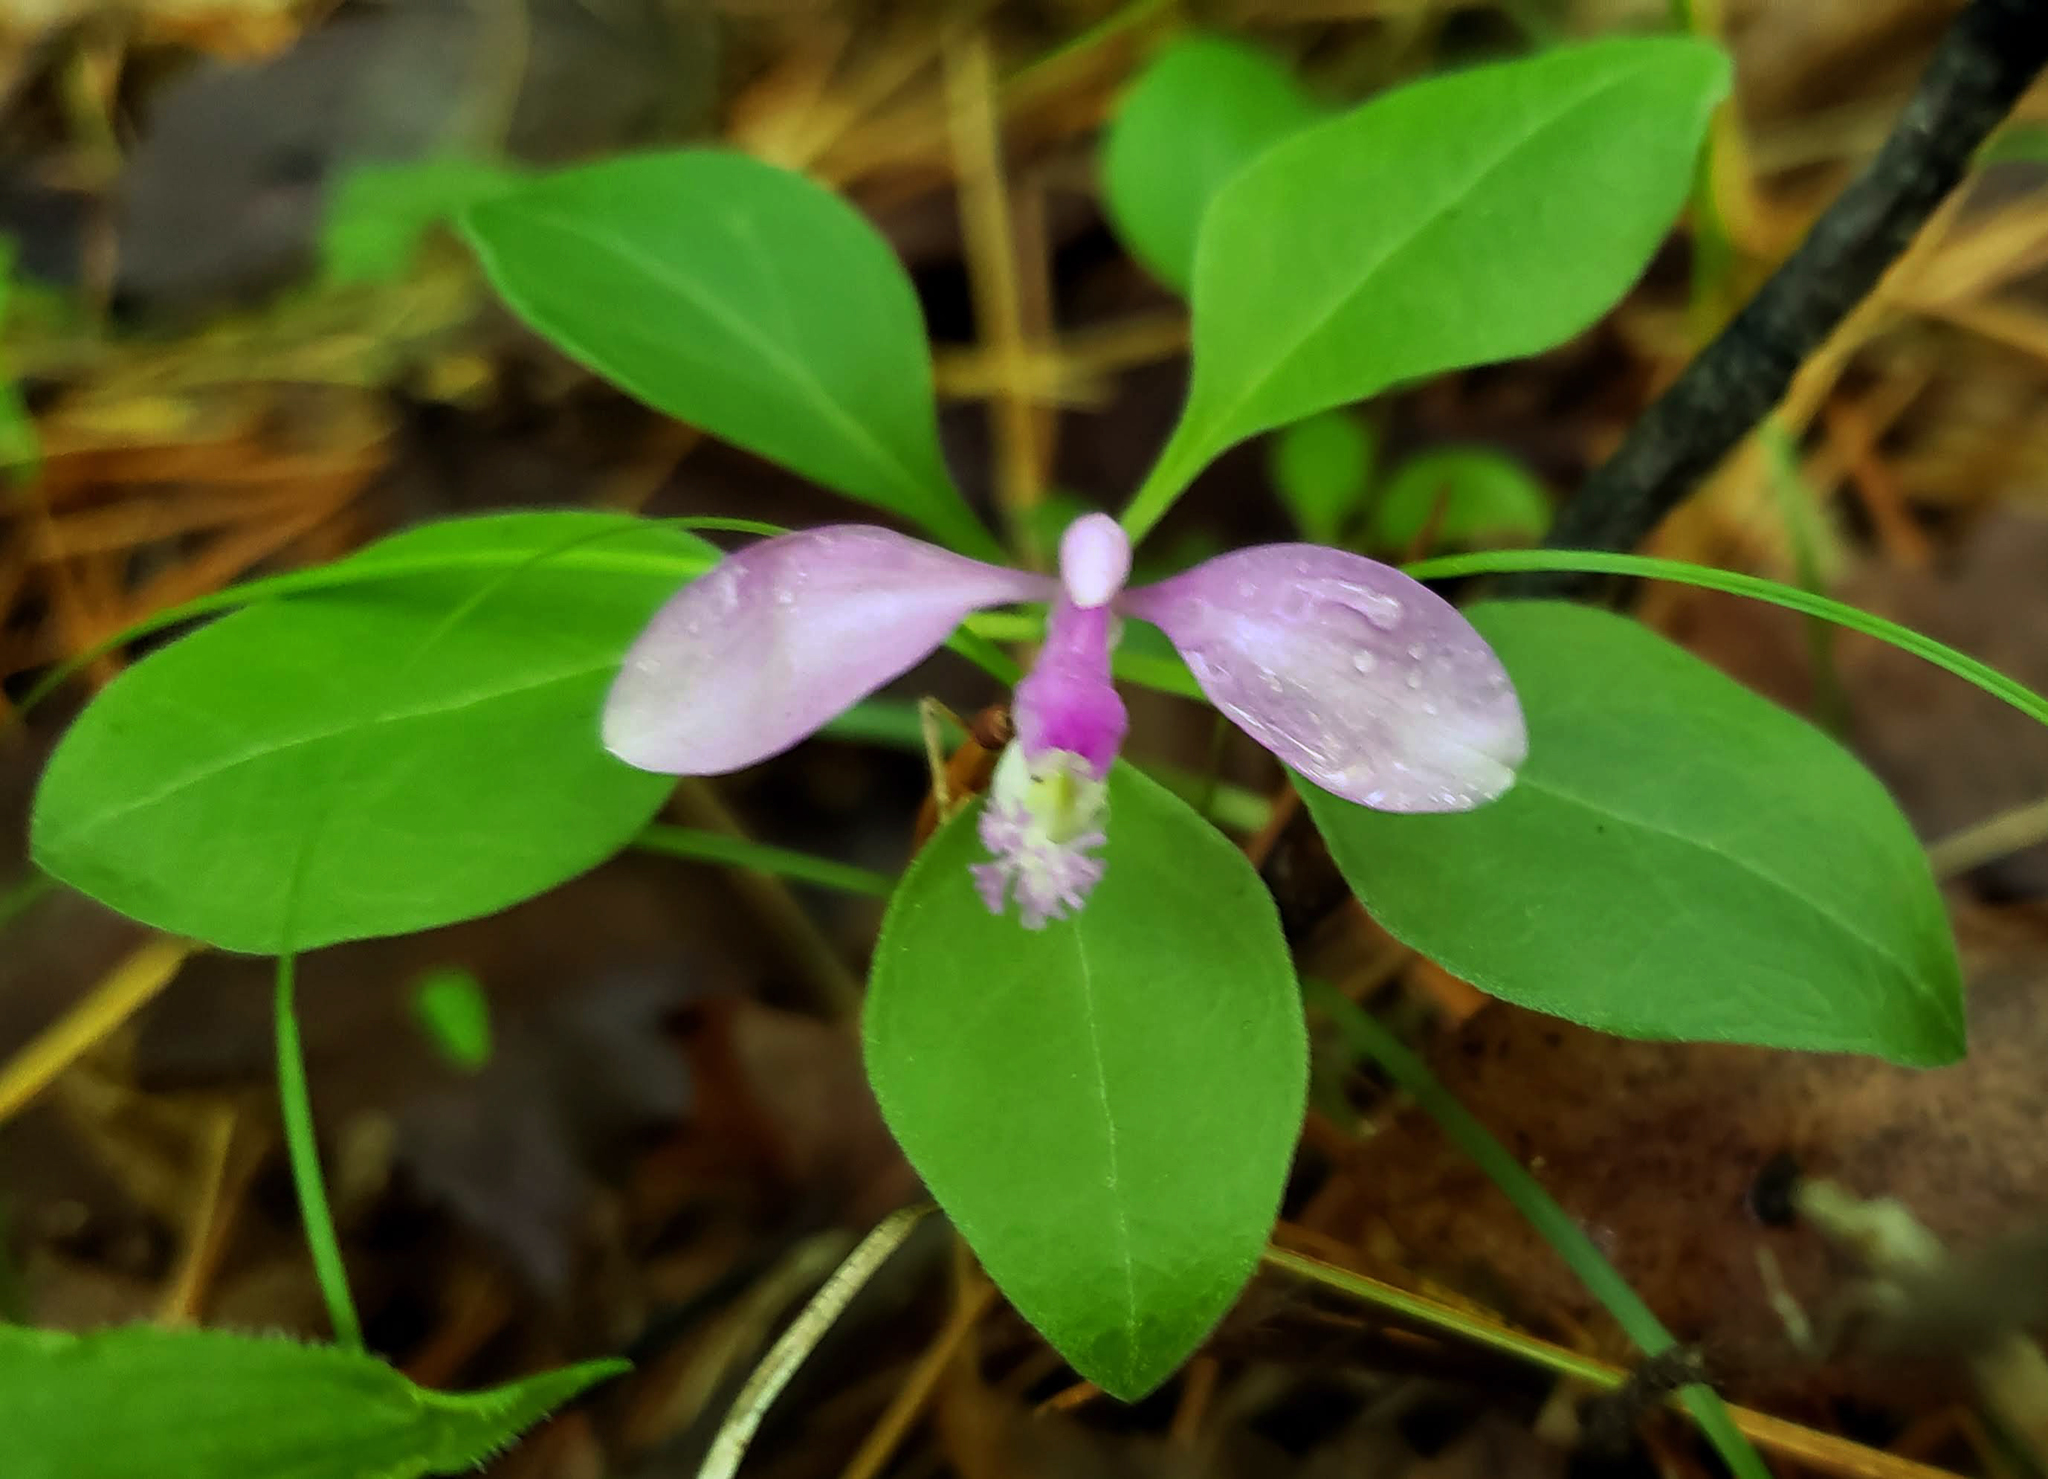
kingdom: Plantae
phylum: Tracheophyta
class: Magnoliopsida
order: Fabales
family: Polygalaceae
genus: Polygaloides
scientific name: Polygaloides paucifolia
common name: Bird-on-the-wing
